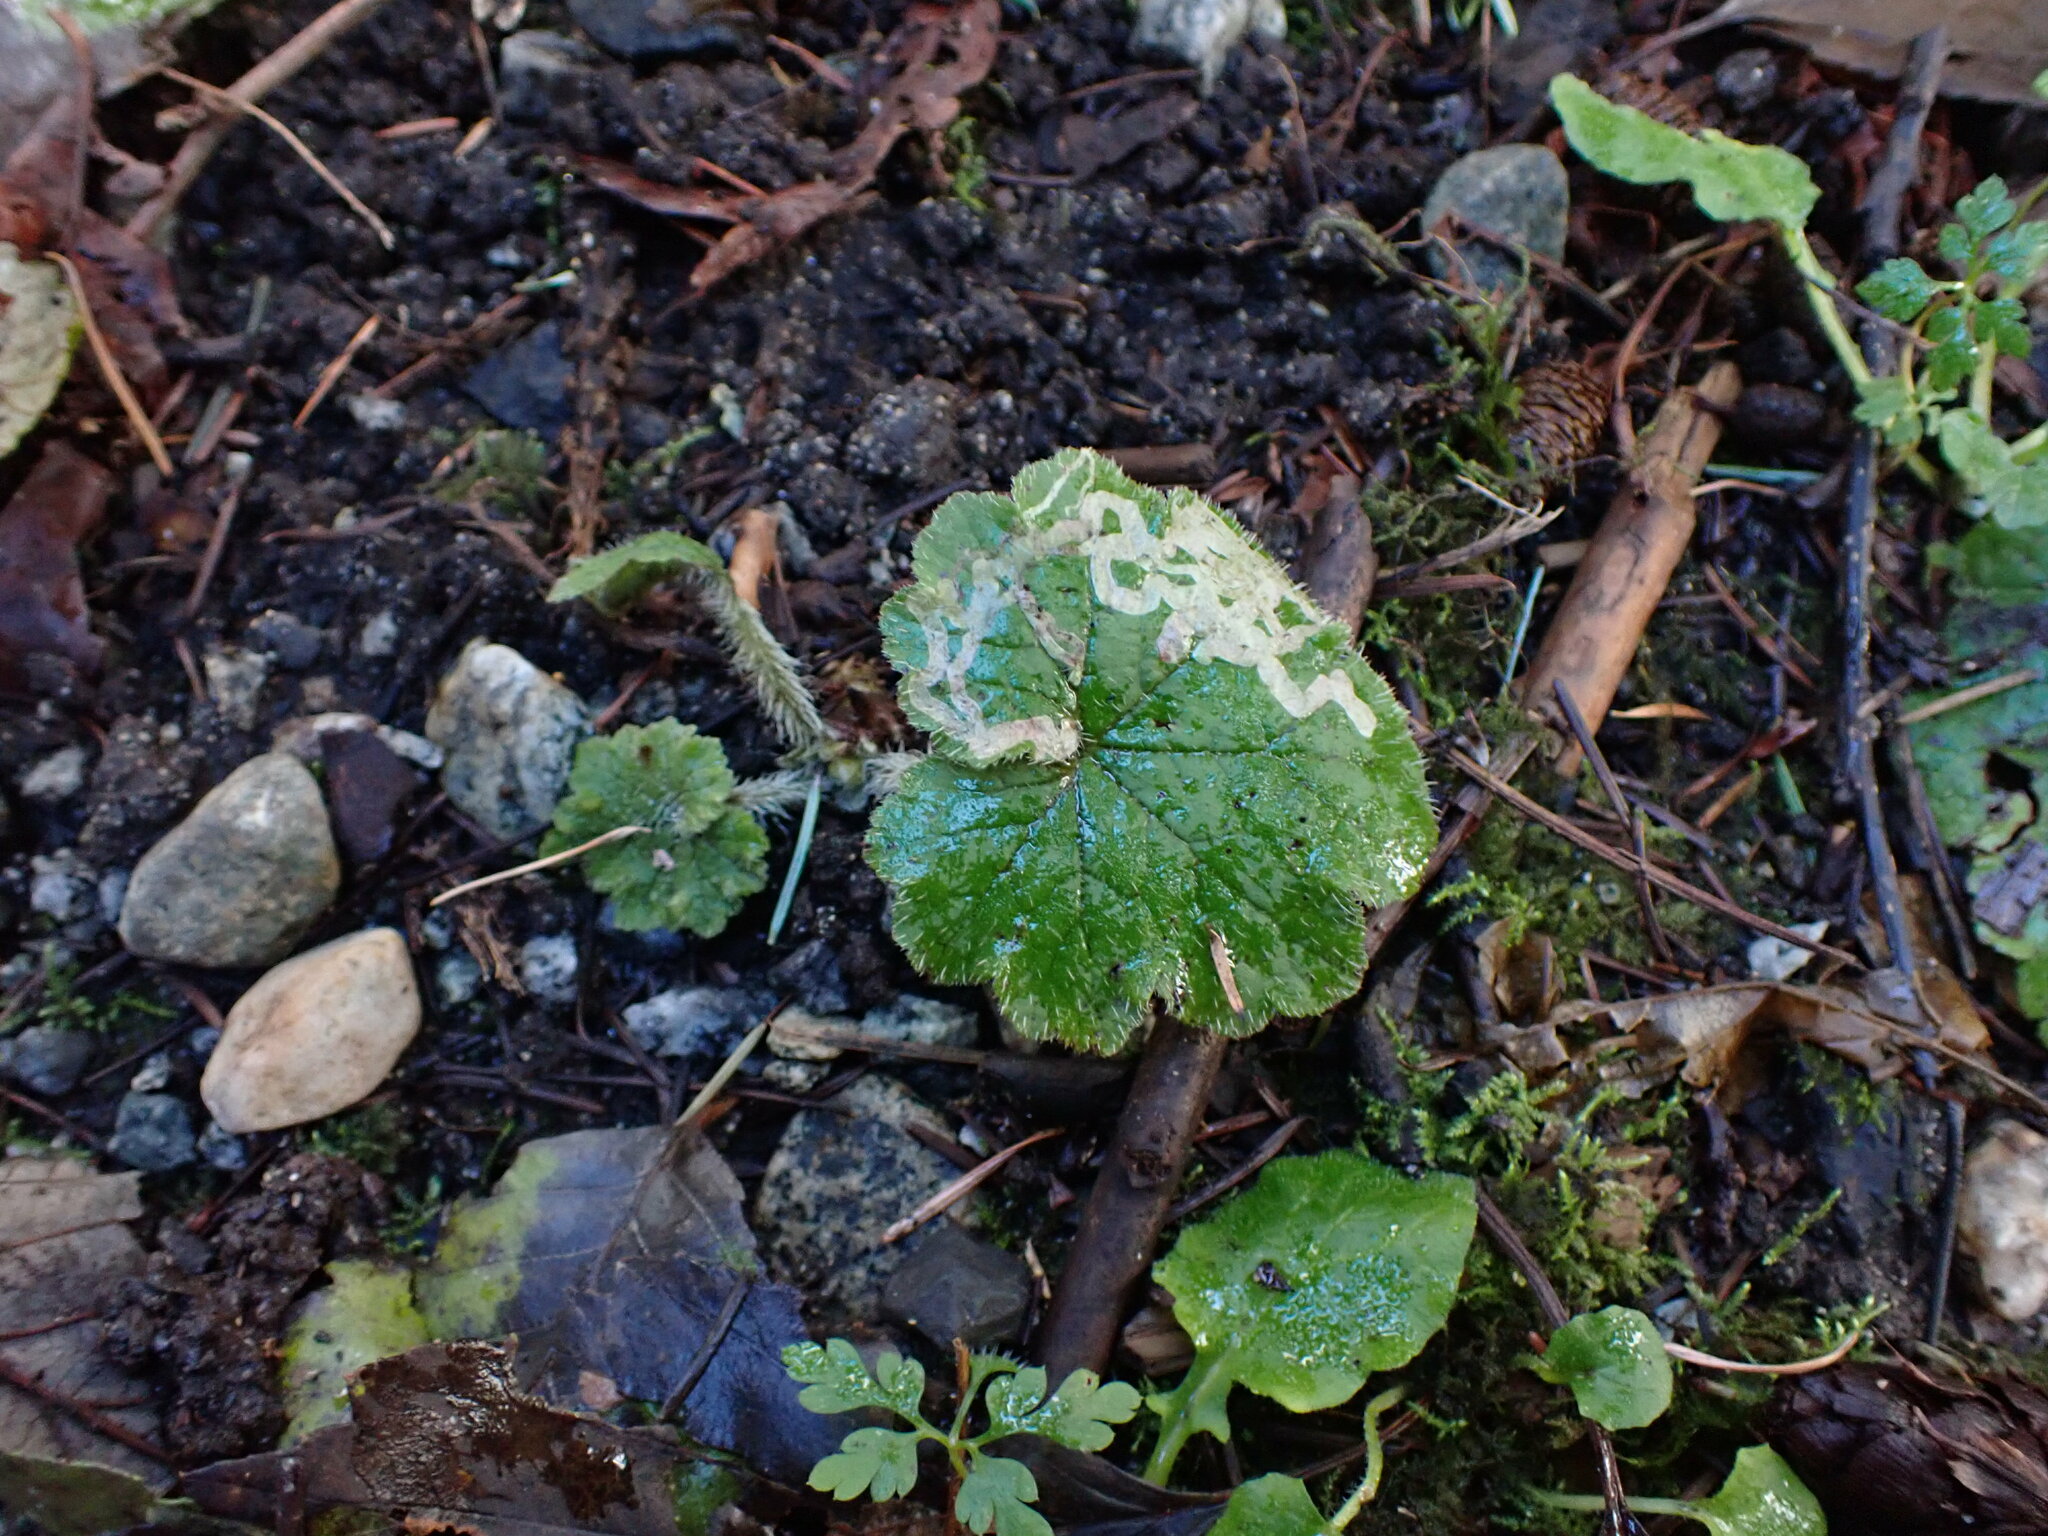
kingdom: Animalia
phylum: Arthropoda
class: Insecta
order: Diptera
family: Agromyzidae
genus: Phytomyza
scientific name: Phytomyza tiarellae
